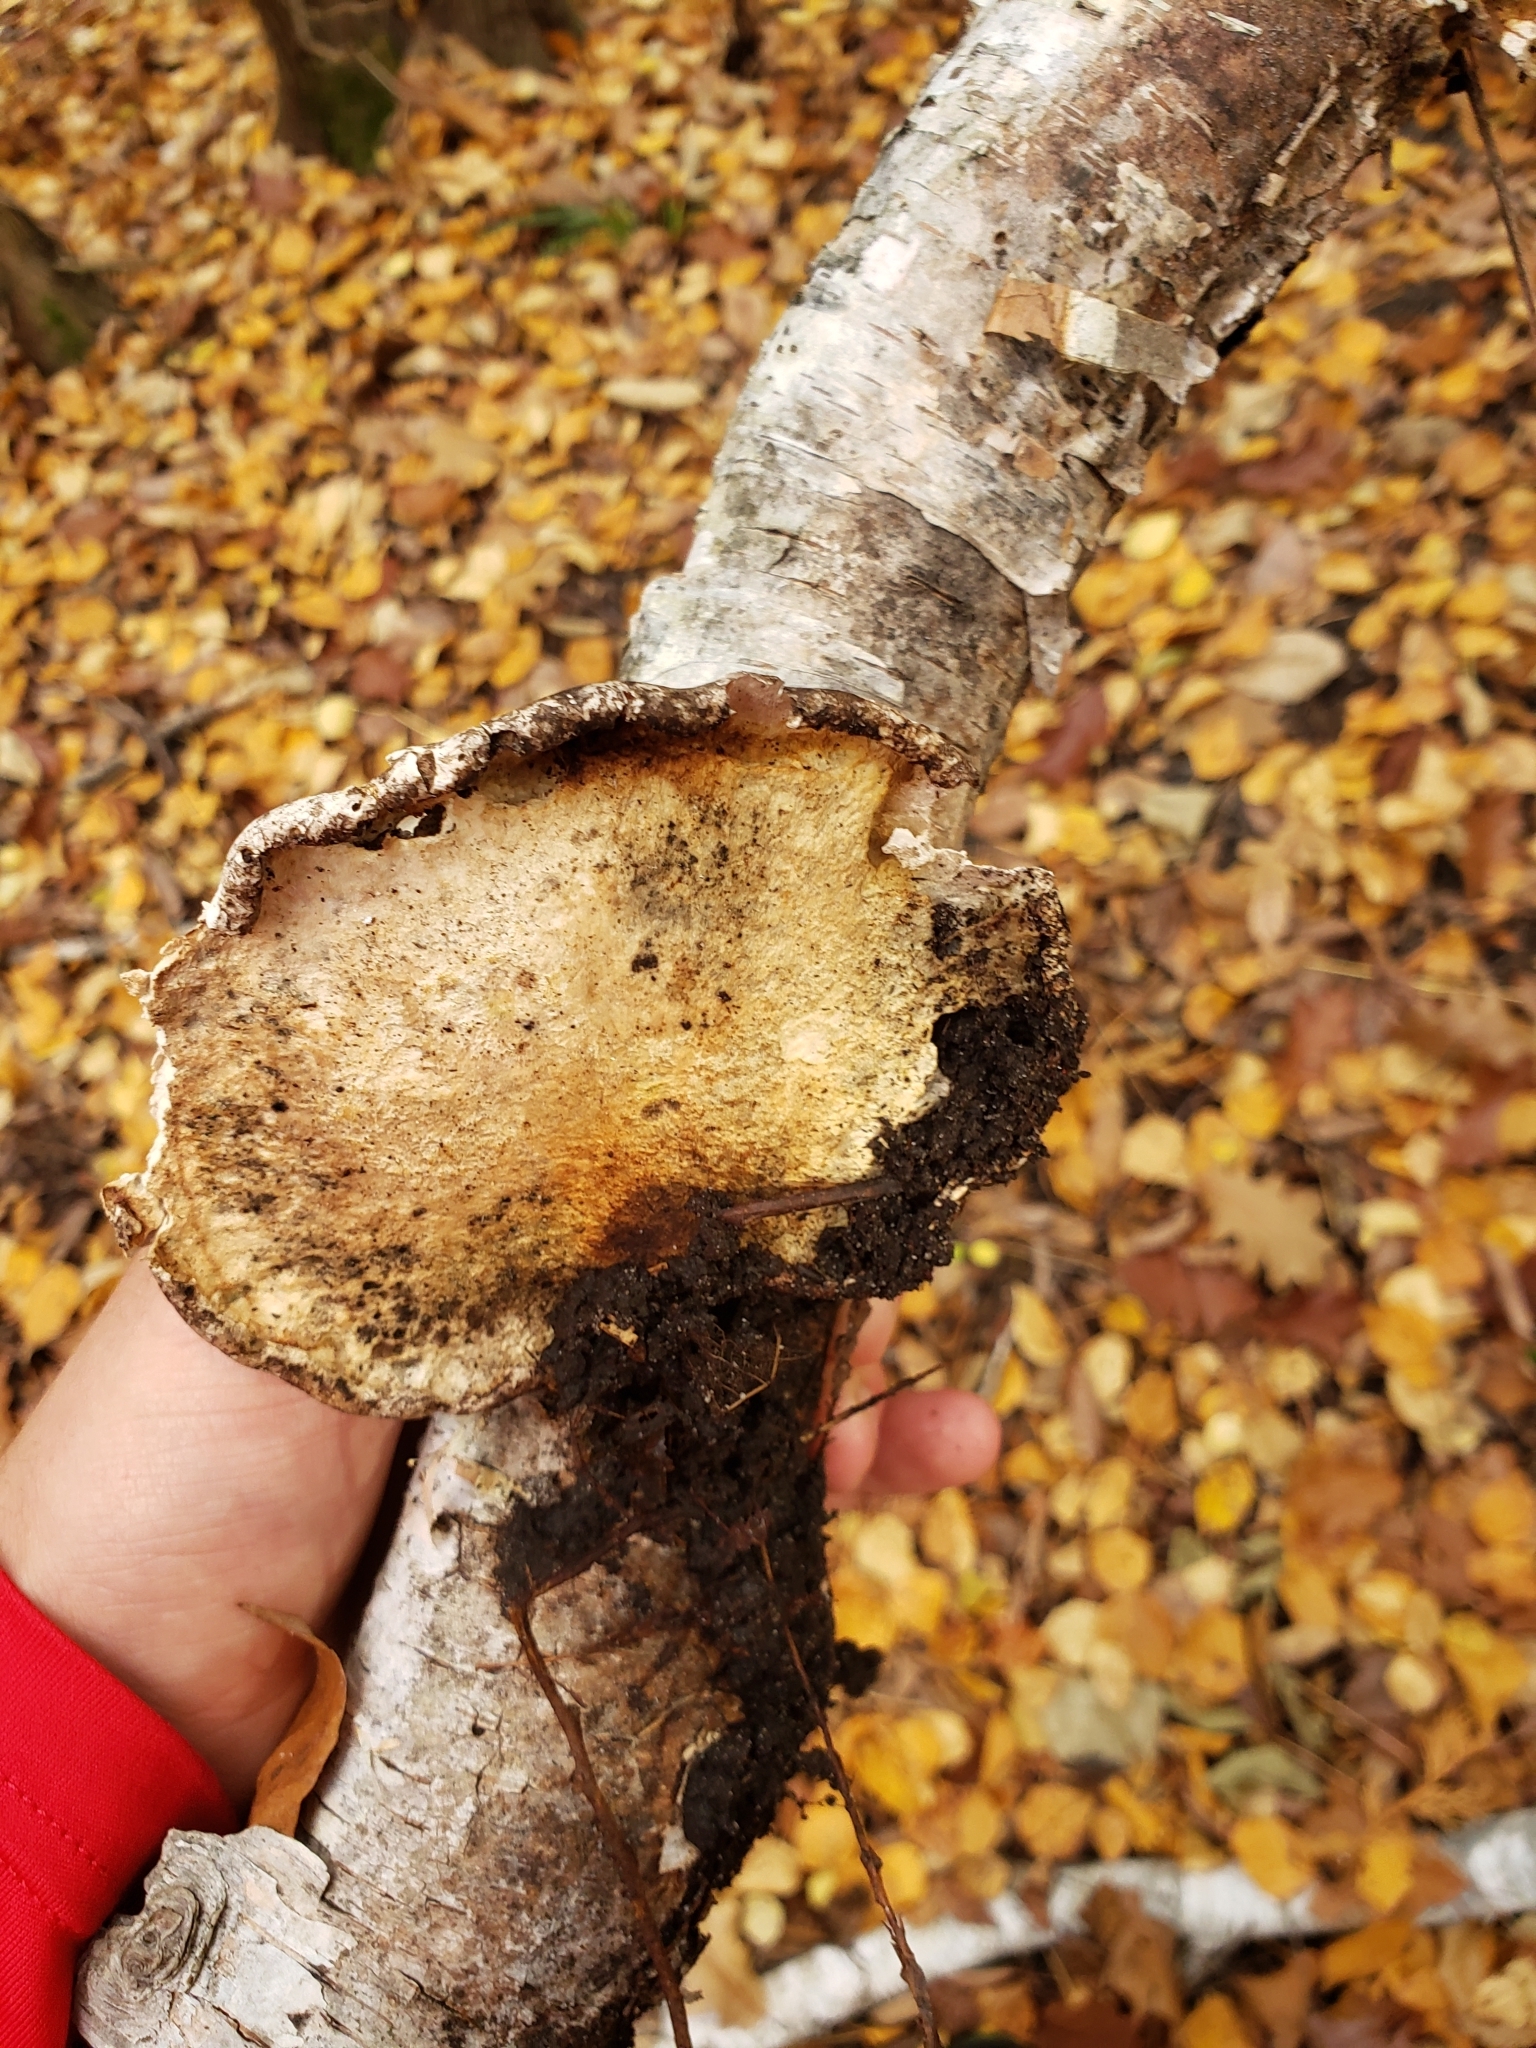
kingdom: Fungi
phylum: Basidiomycota
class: Agaricomycetes
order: Polyporales
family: Fomitopsidaceae
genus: Fomitopsis
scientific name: Fomitopsis betulina
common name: Birch polypore
